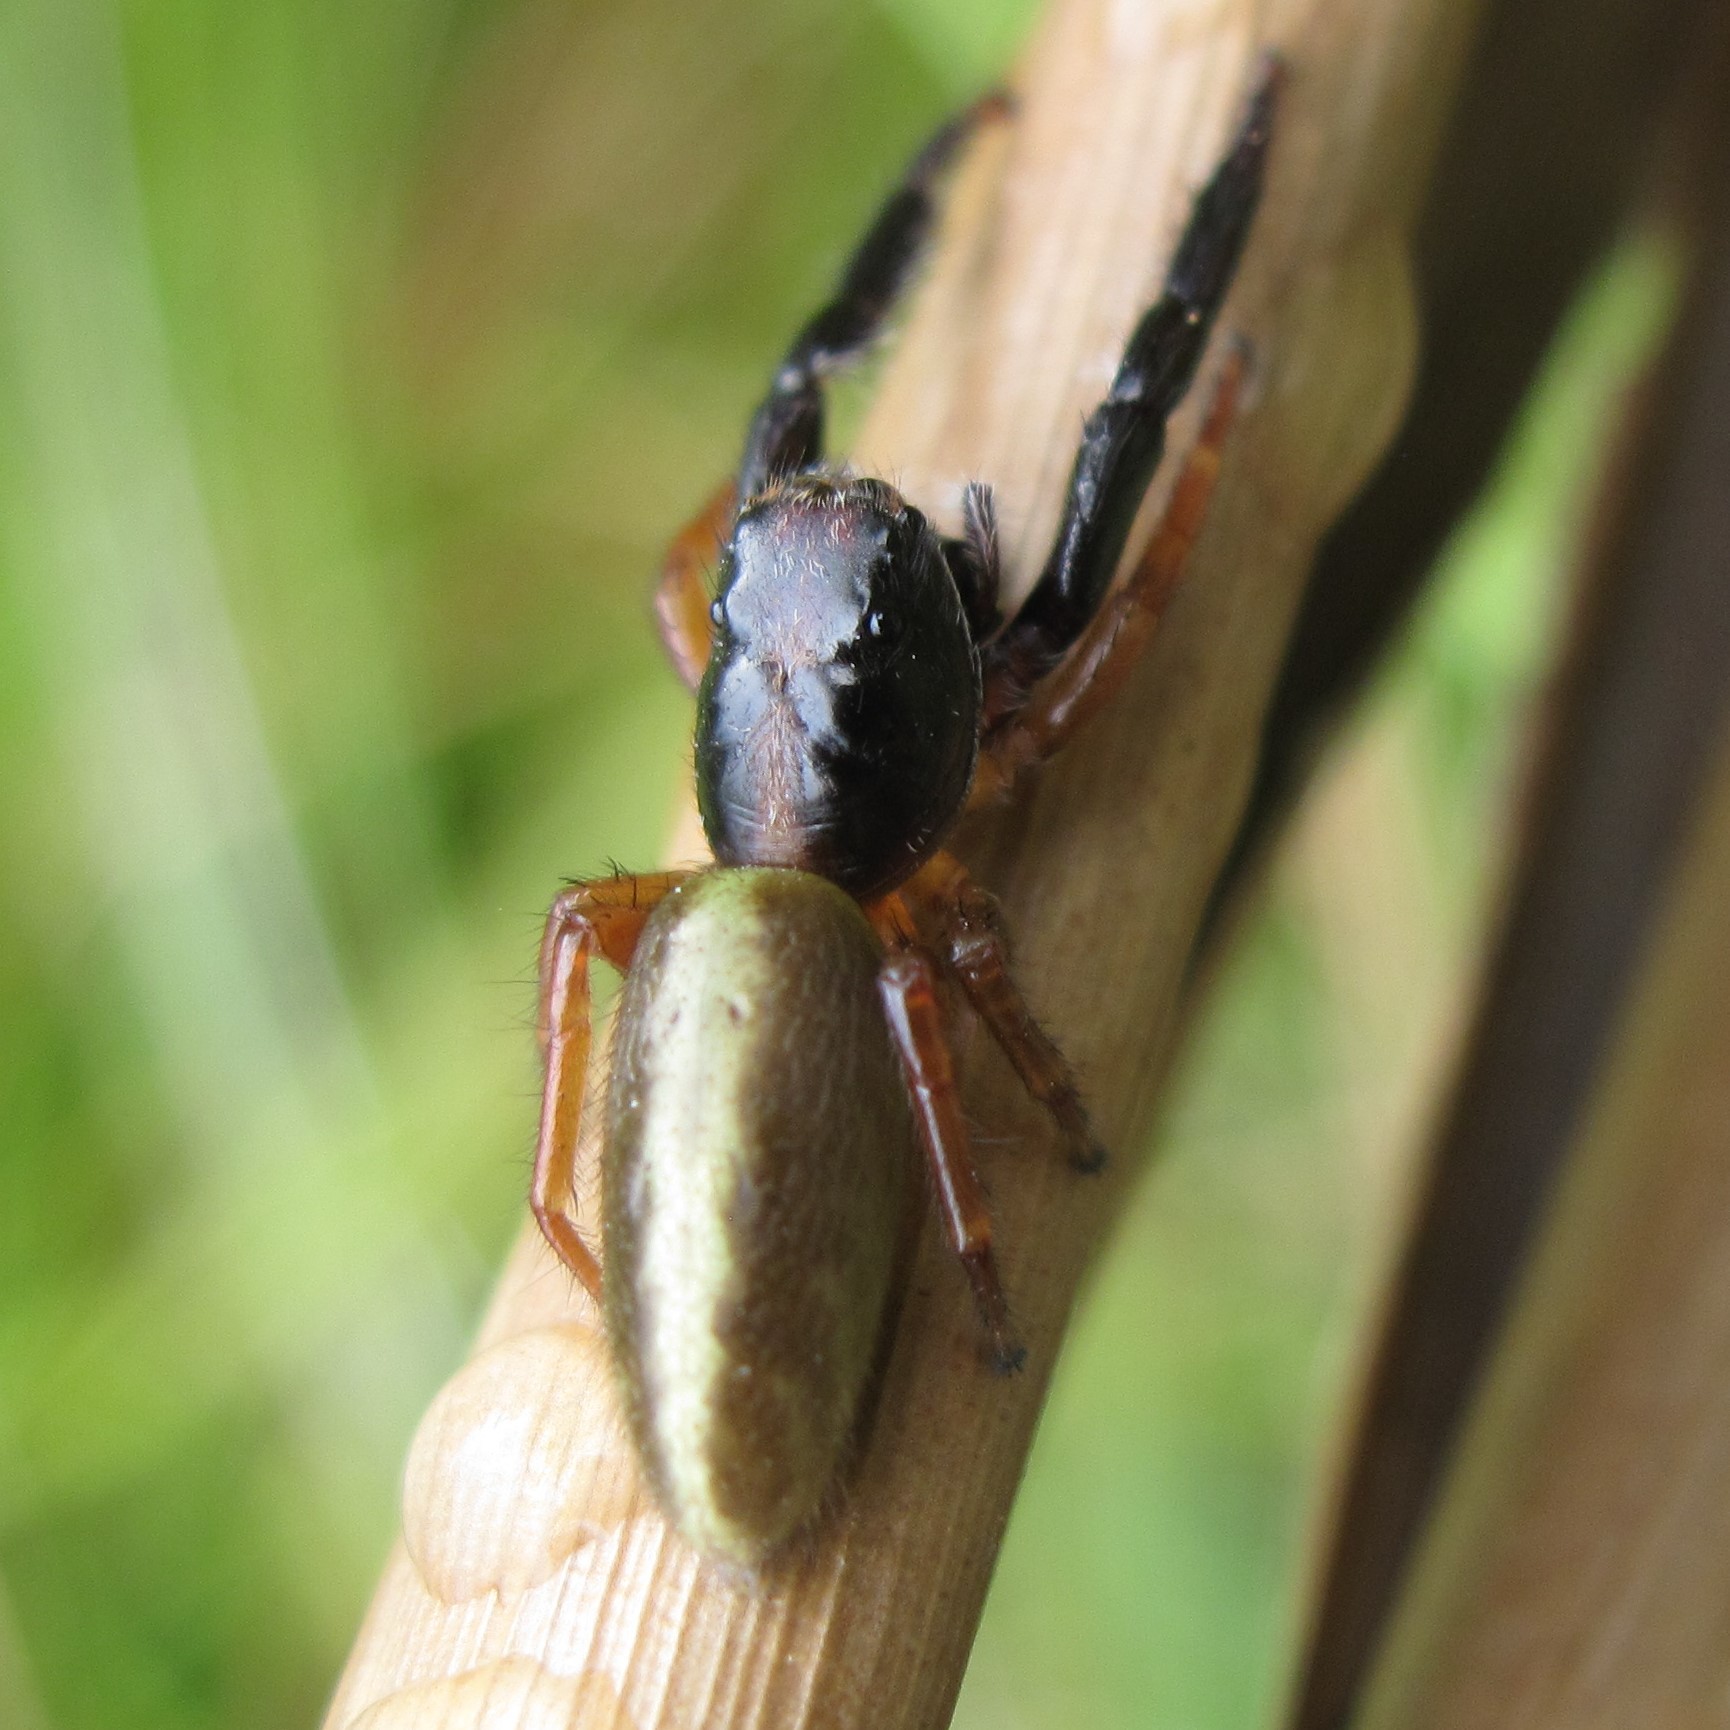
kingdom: Animalia
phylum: Arthropoda
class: Arachnida
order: Araneae
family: Salticidae
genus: Trite
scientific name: Trite planiceps
